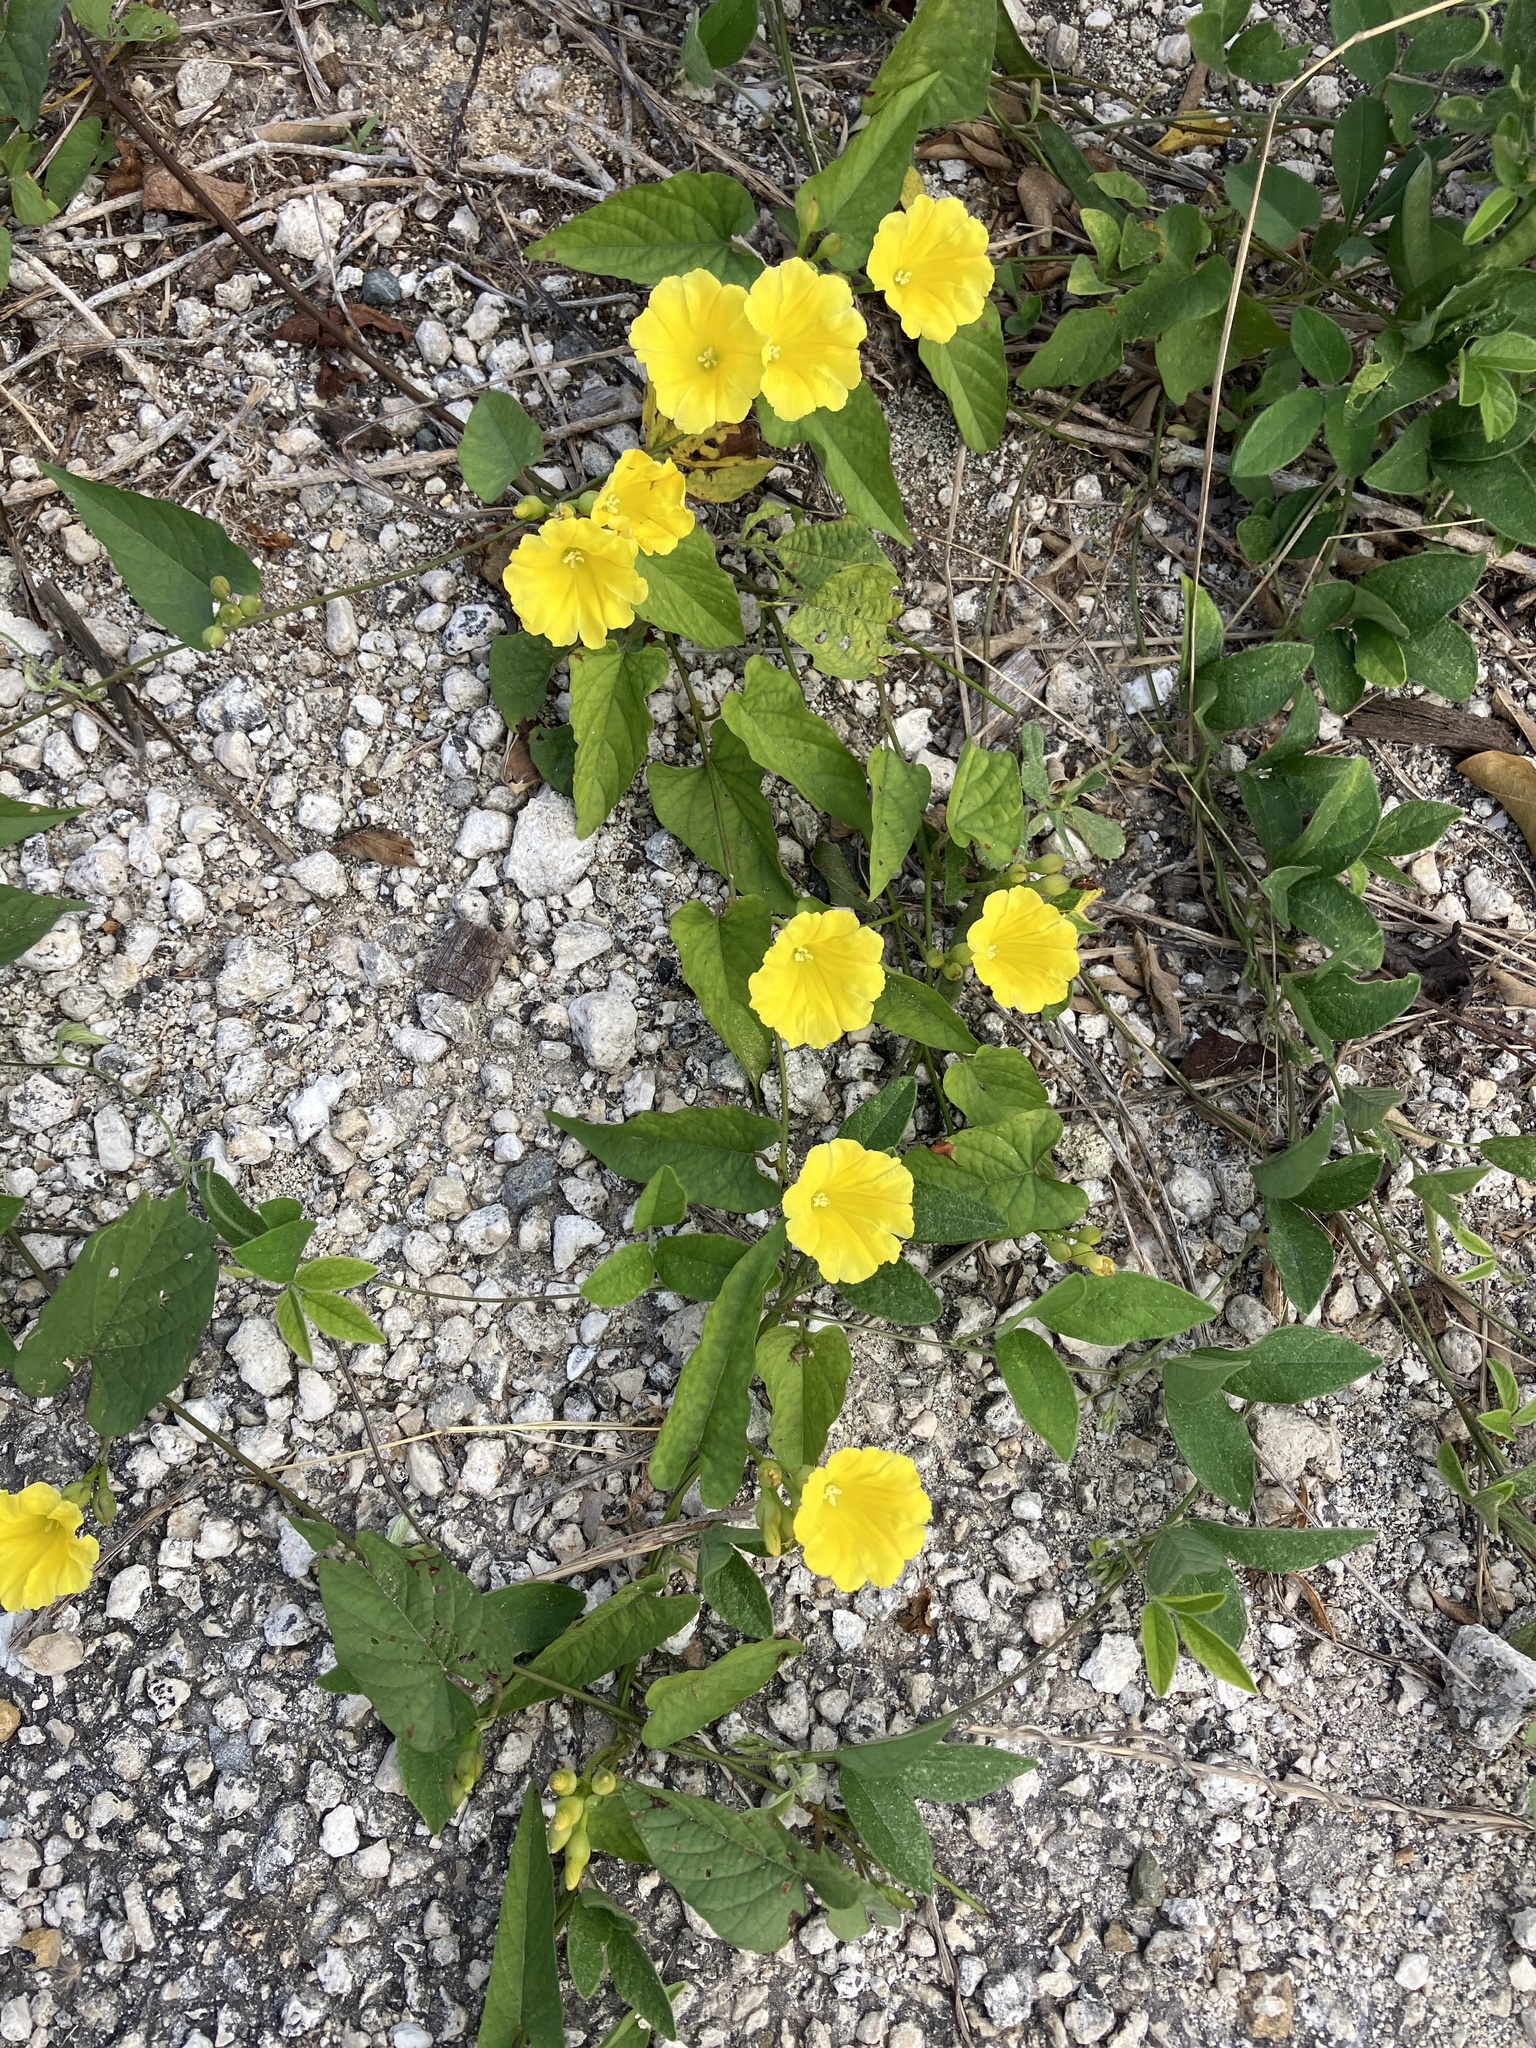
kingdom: Plantae
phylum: Tracheophyta
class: Magnoliopsida
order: Solanales
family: Convolvulaceae
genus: Camonea
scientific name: Camonea umbellata
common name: Hogvine
